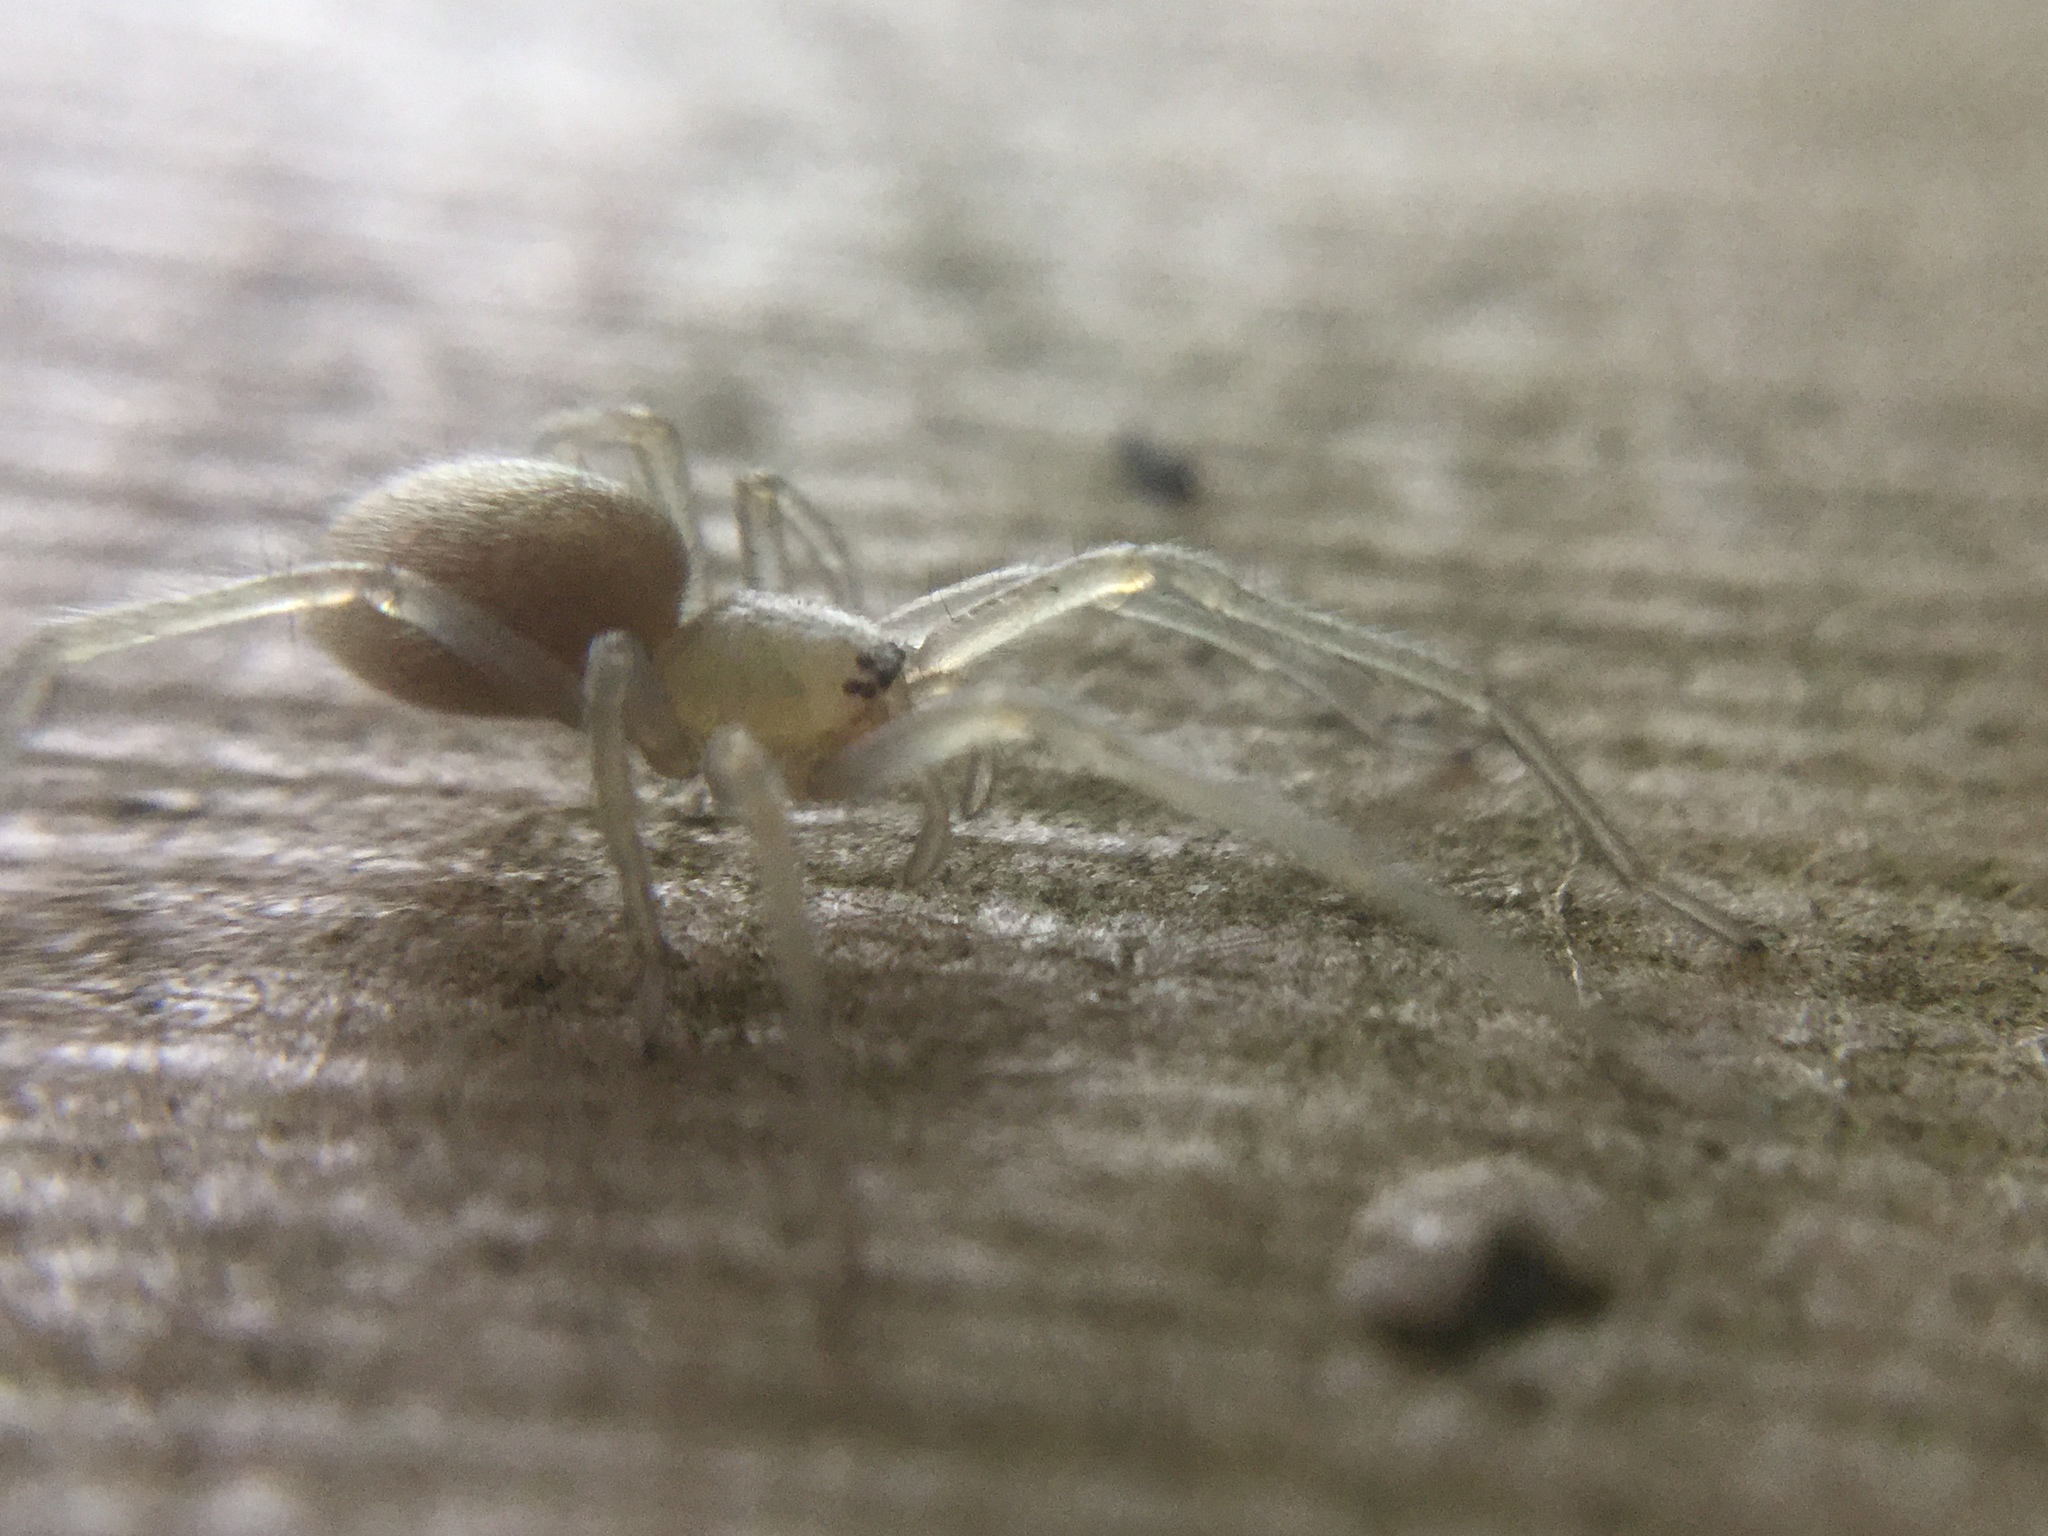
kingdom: Animalia
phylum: Arthropoda
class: Arachnida
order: Araneae
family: Cheiracanthiidae
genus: Cheiracanthium
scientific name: Cheiracanthium inclusum
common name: Long-legged sac spiders
